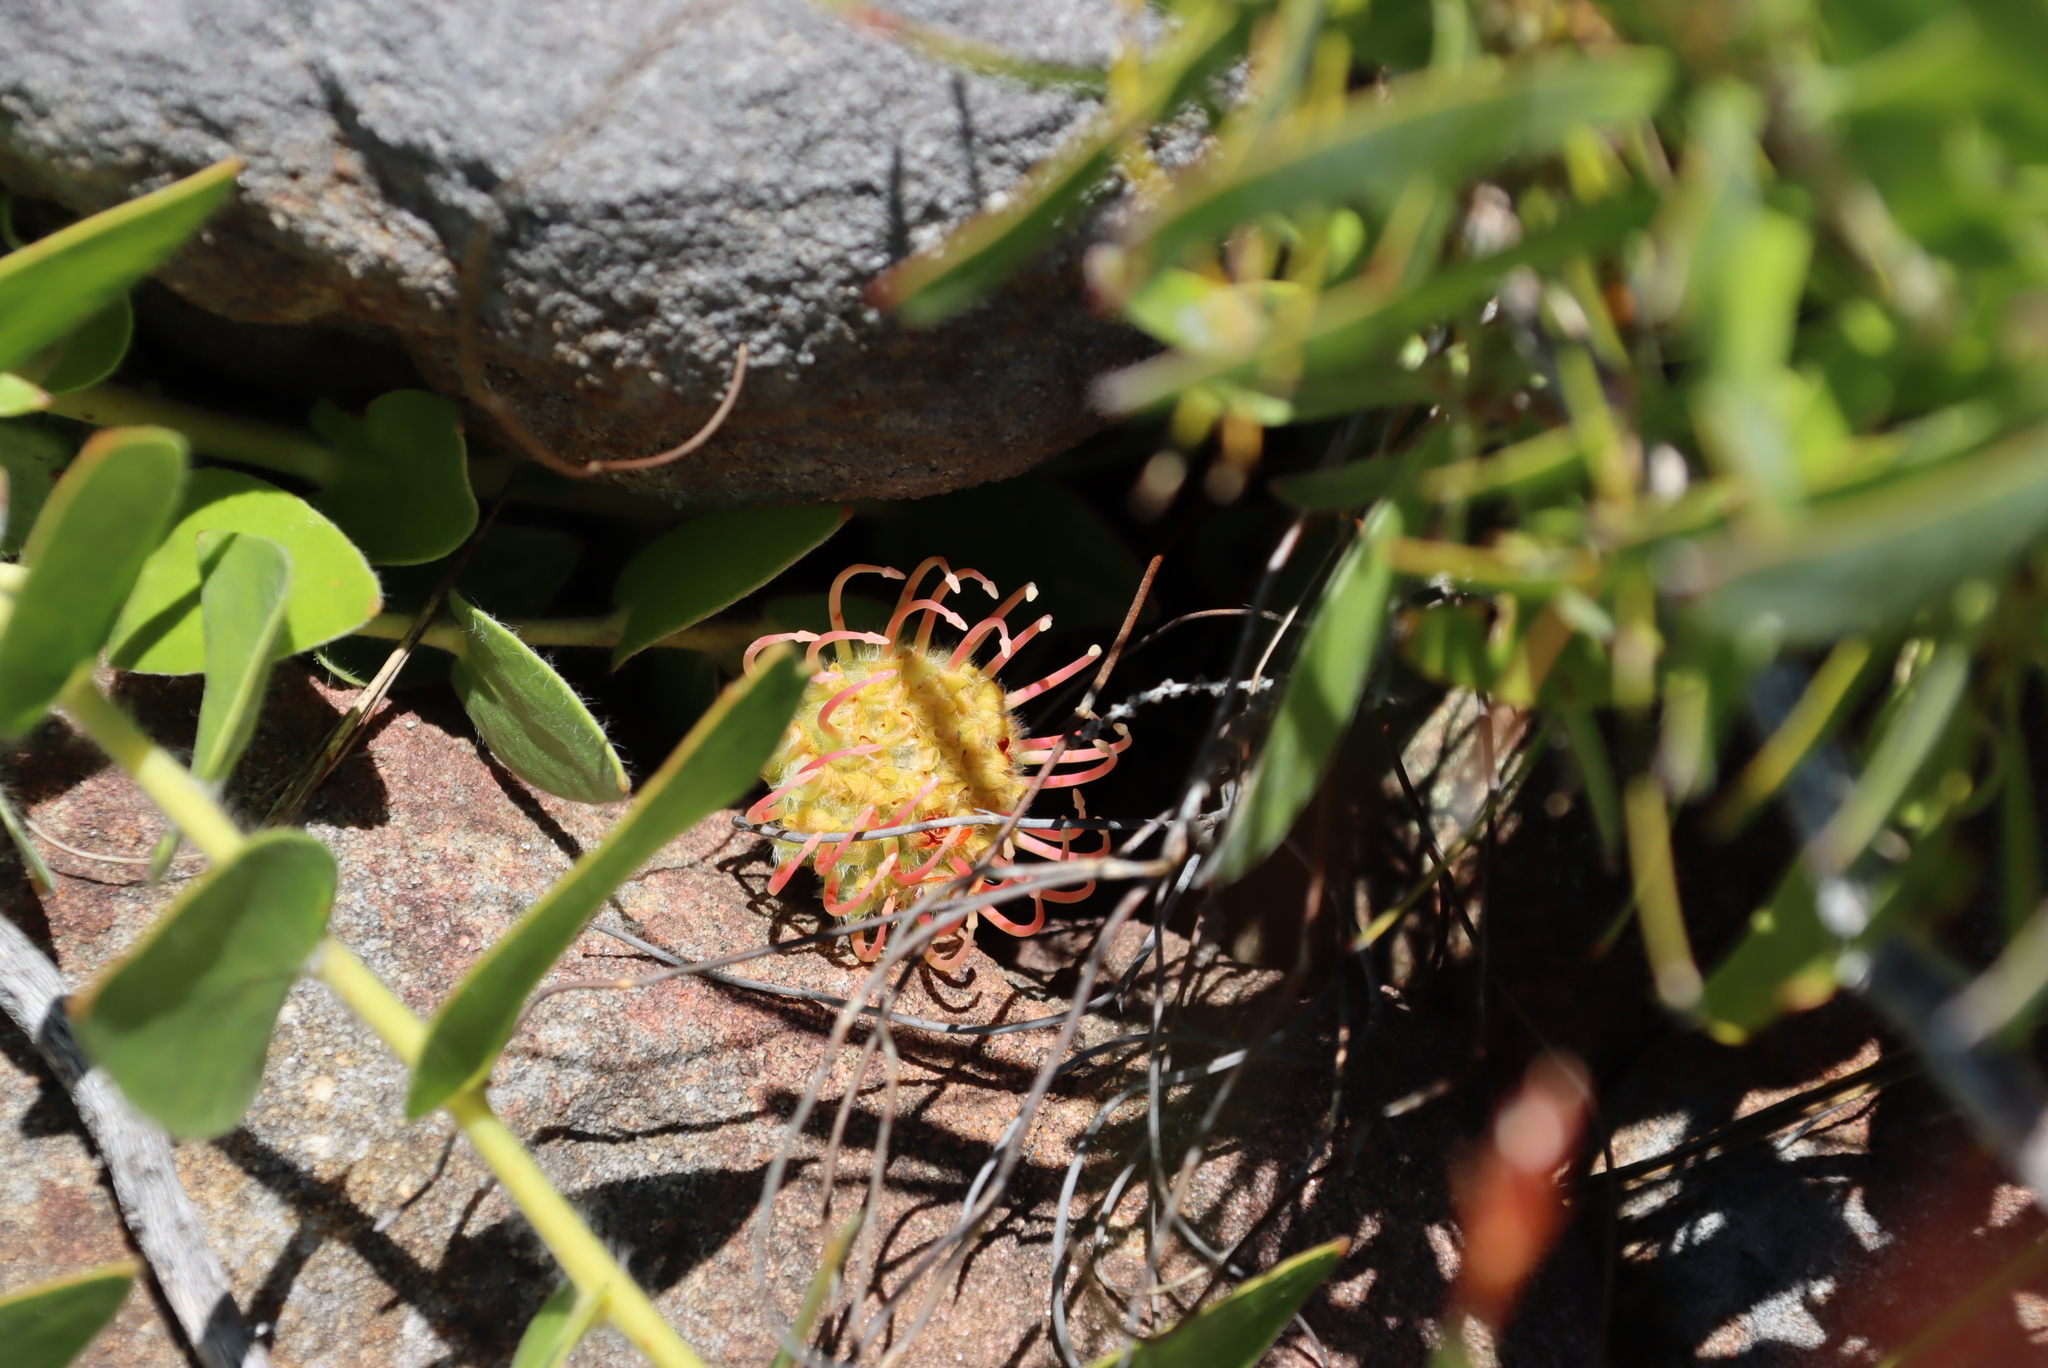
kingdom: Plantae
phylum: Tracheophyta
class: Magnoliopsida
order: Proteales
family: Proteaceae
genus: Leucospermum
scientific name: Leucospermum cordatum
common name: Heart-leaf pincushion
